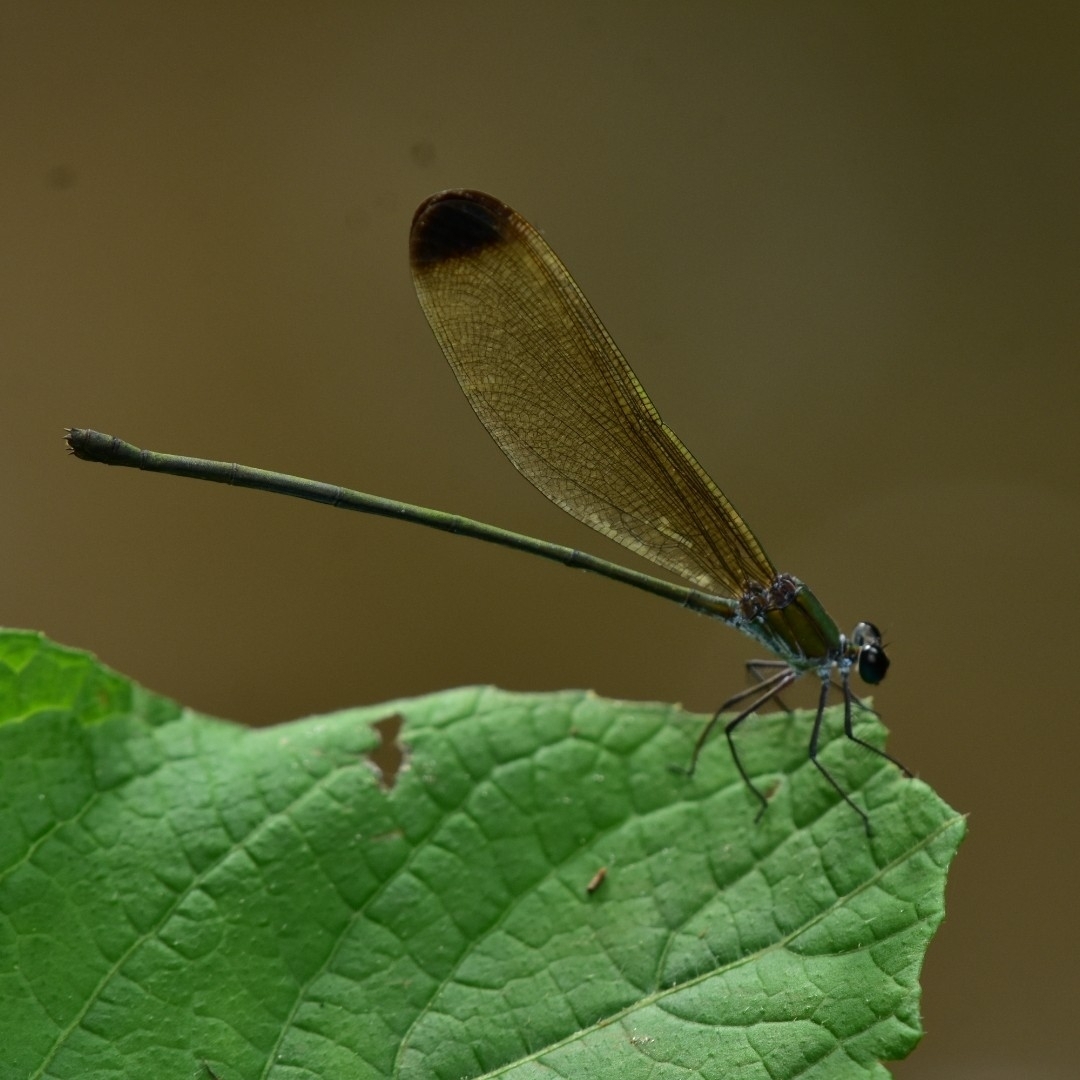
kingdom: Animalia
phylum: Arthropoda
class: Insecta
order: Odonata
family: Calopterygidae
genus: Vestalis
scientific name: Vestalis apicalis
